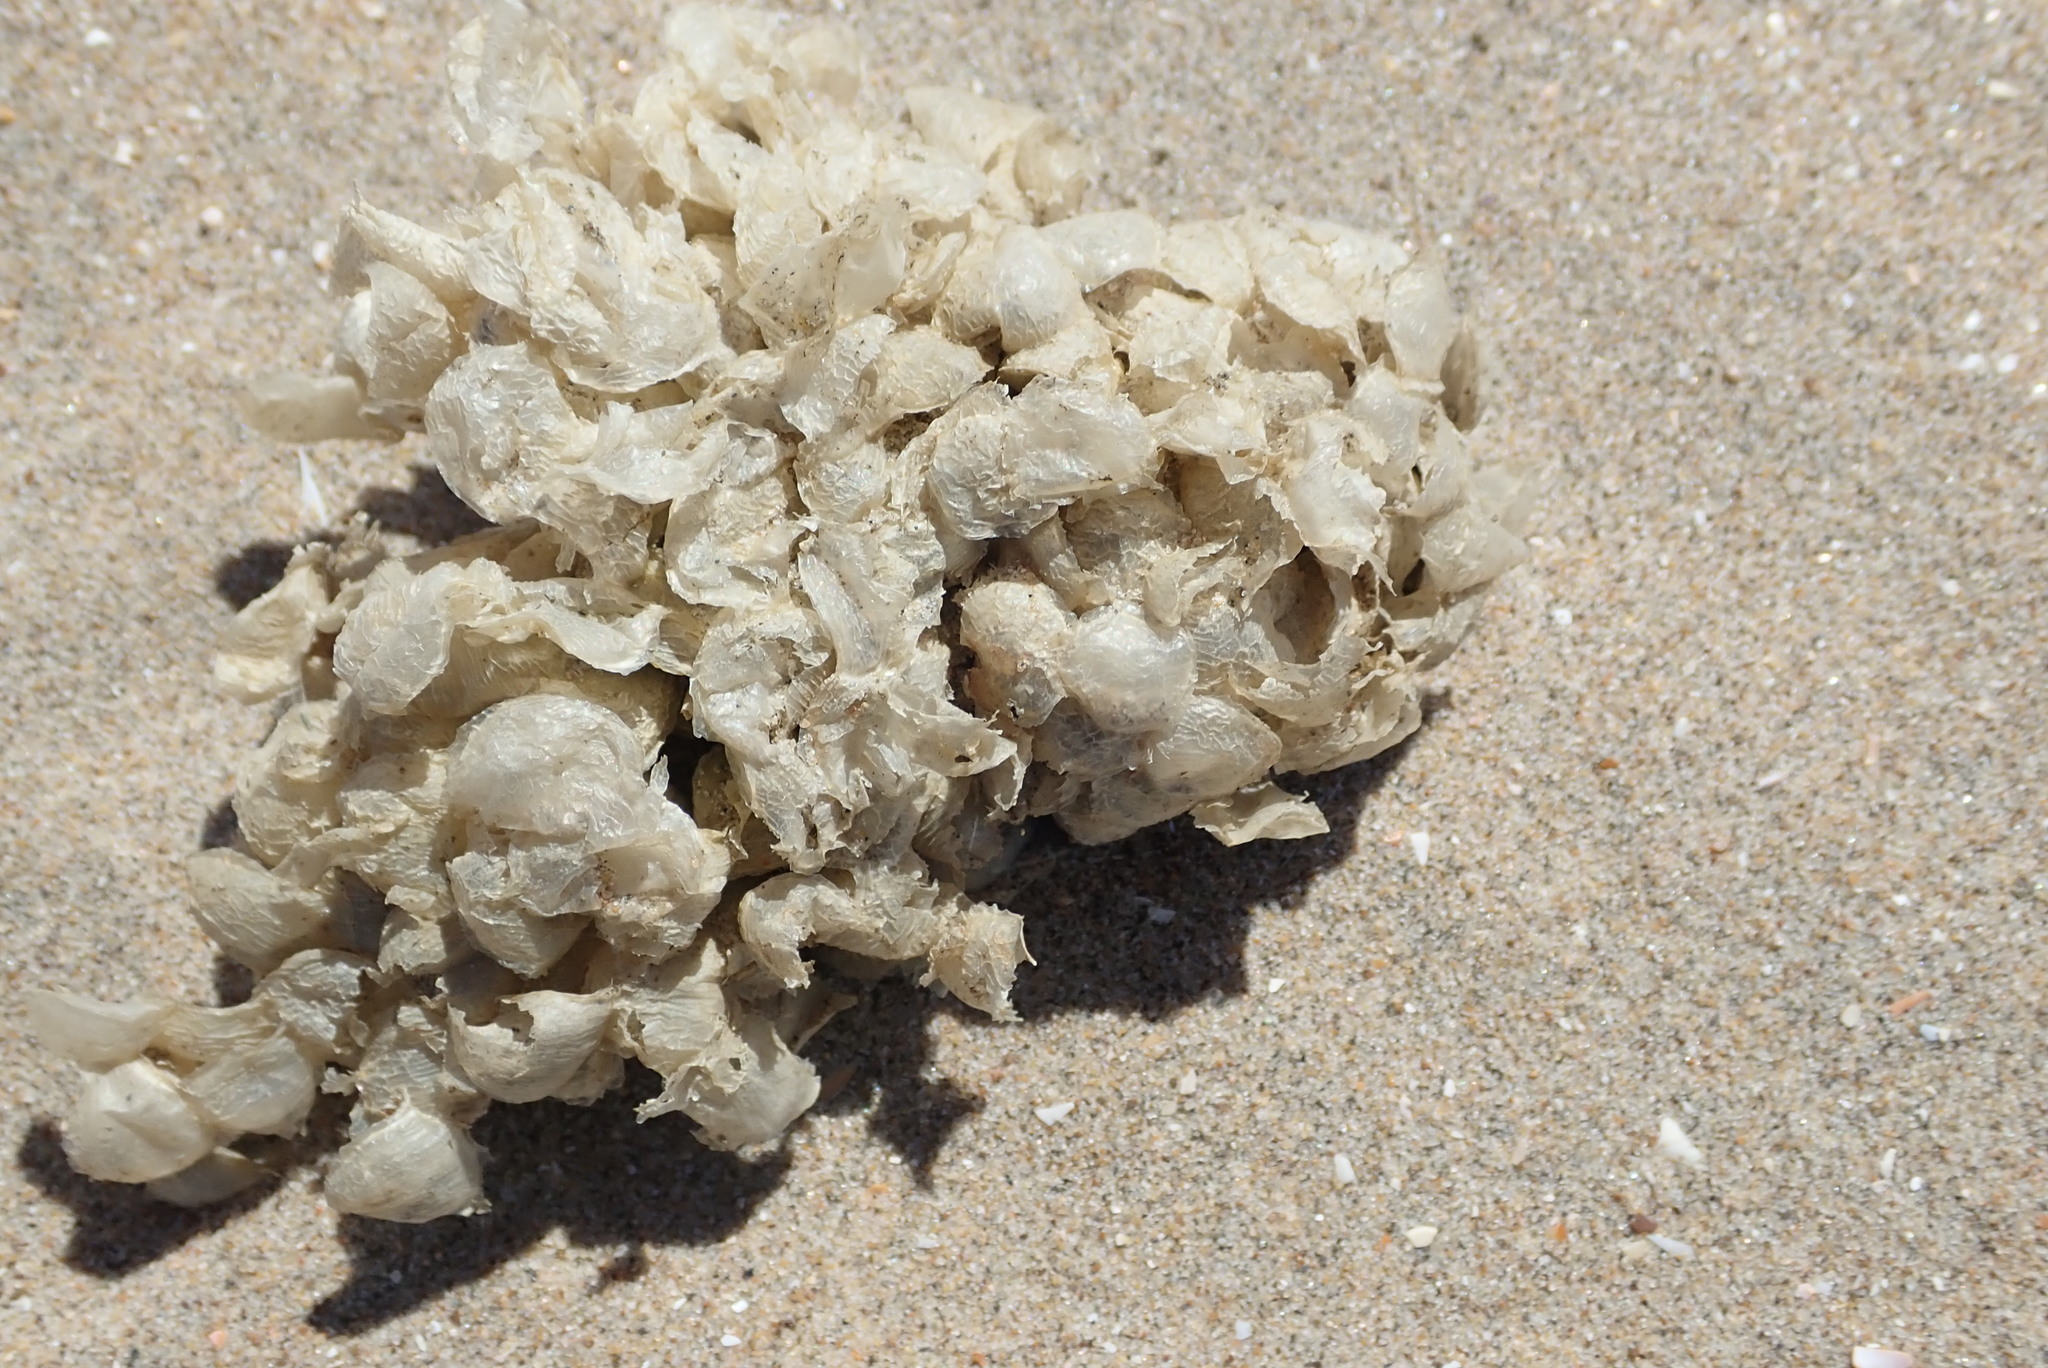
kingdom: Animalia
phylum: Mollusca
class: Gastropoda
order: Neogastropoda
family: Buccinidae
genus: Buccinum
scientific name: Buccinum undatum
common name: Common whelk
